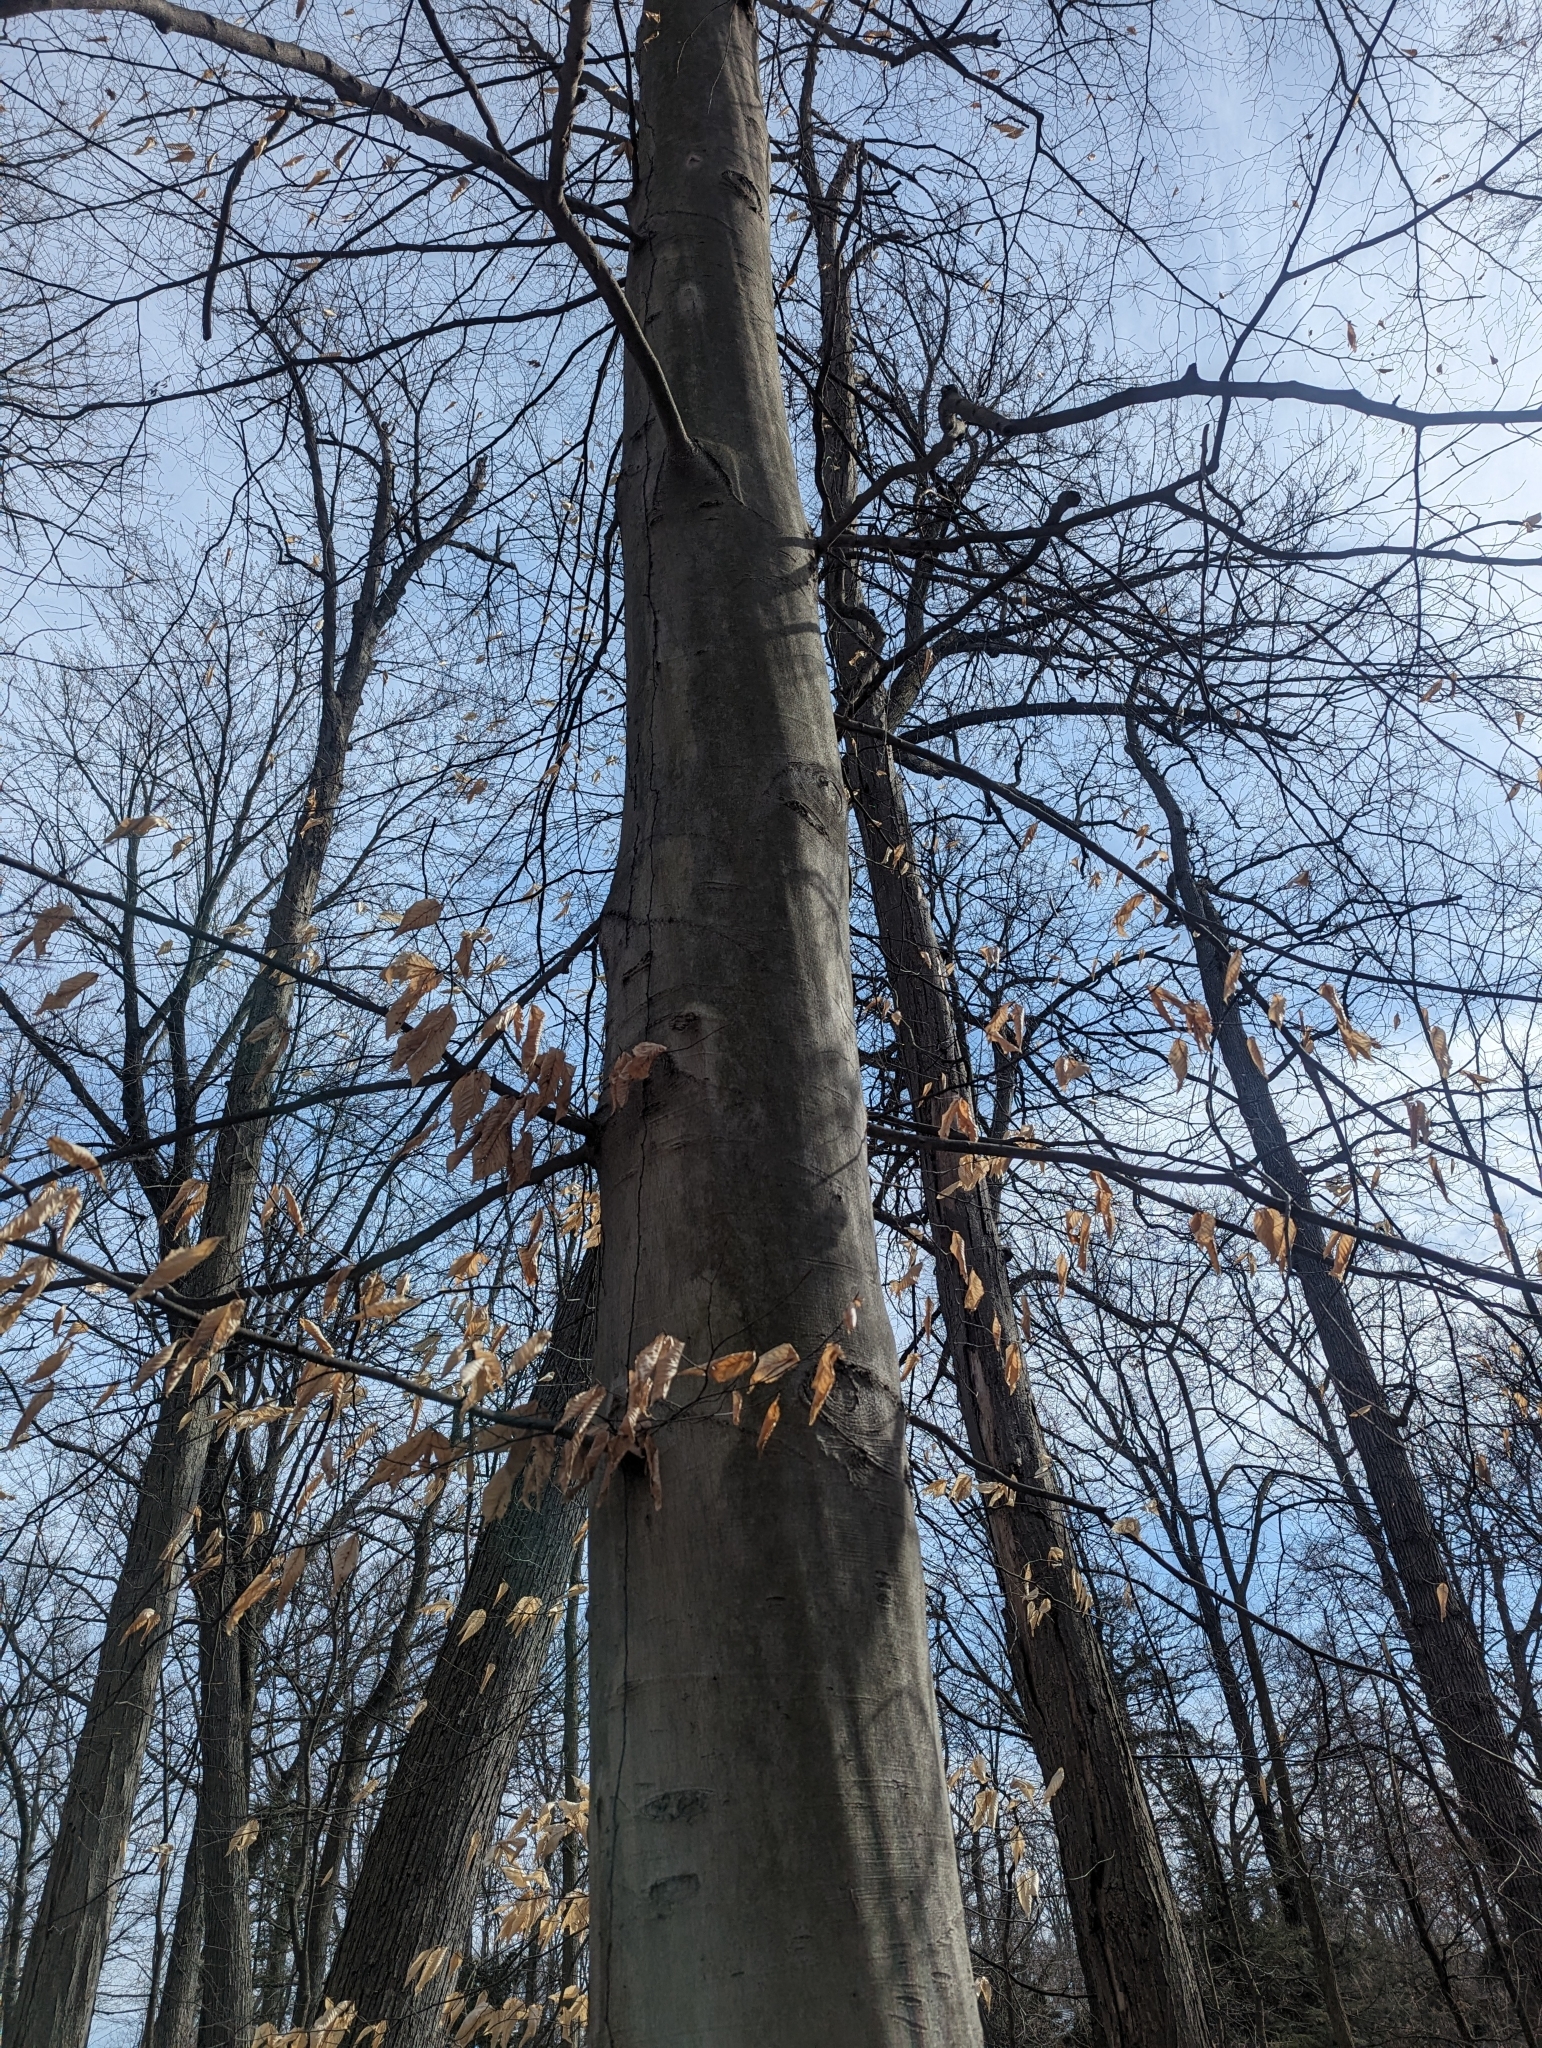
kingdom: Plantae
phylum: Tracheophyta
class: Magnoliopsida
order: Fagales
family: Fagaceae
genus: Fagus
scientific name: Fagus grandifolia
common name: American beech
